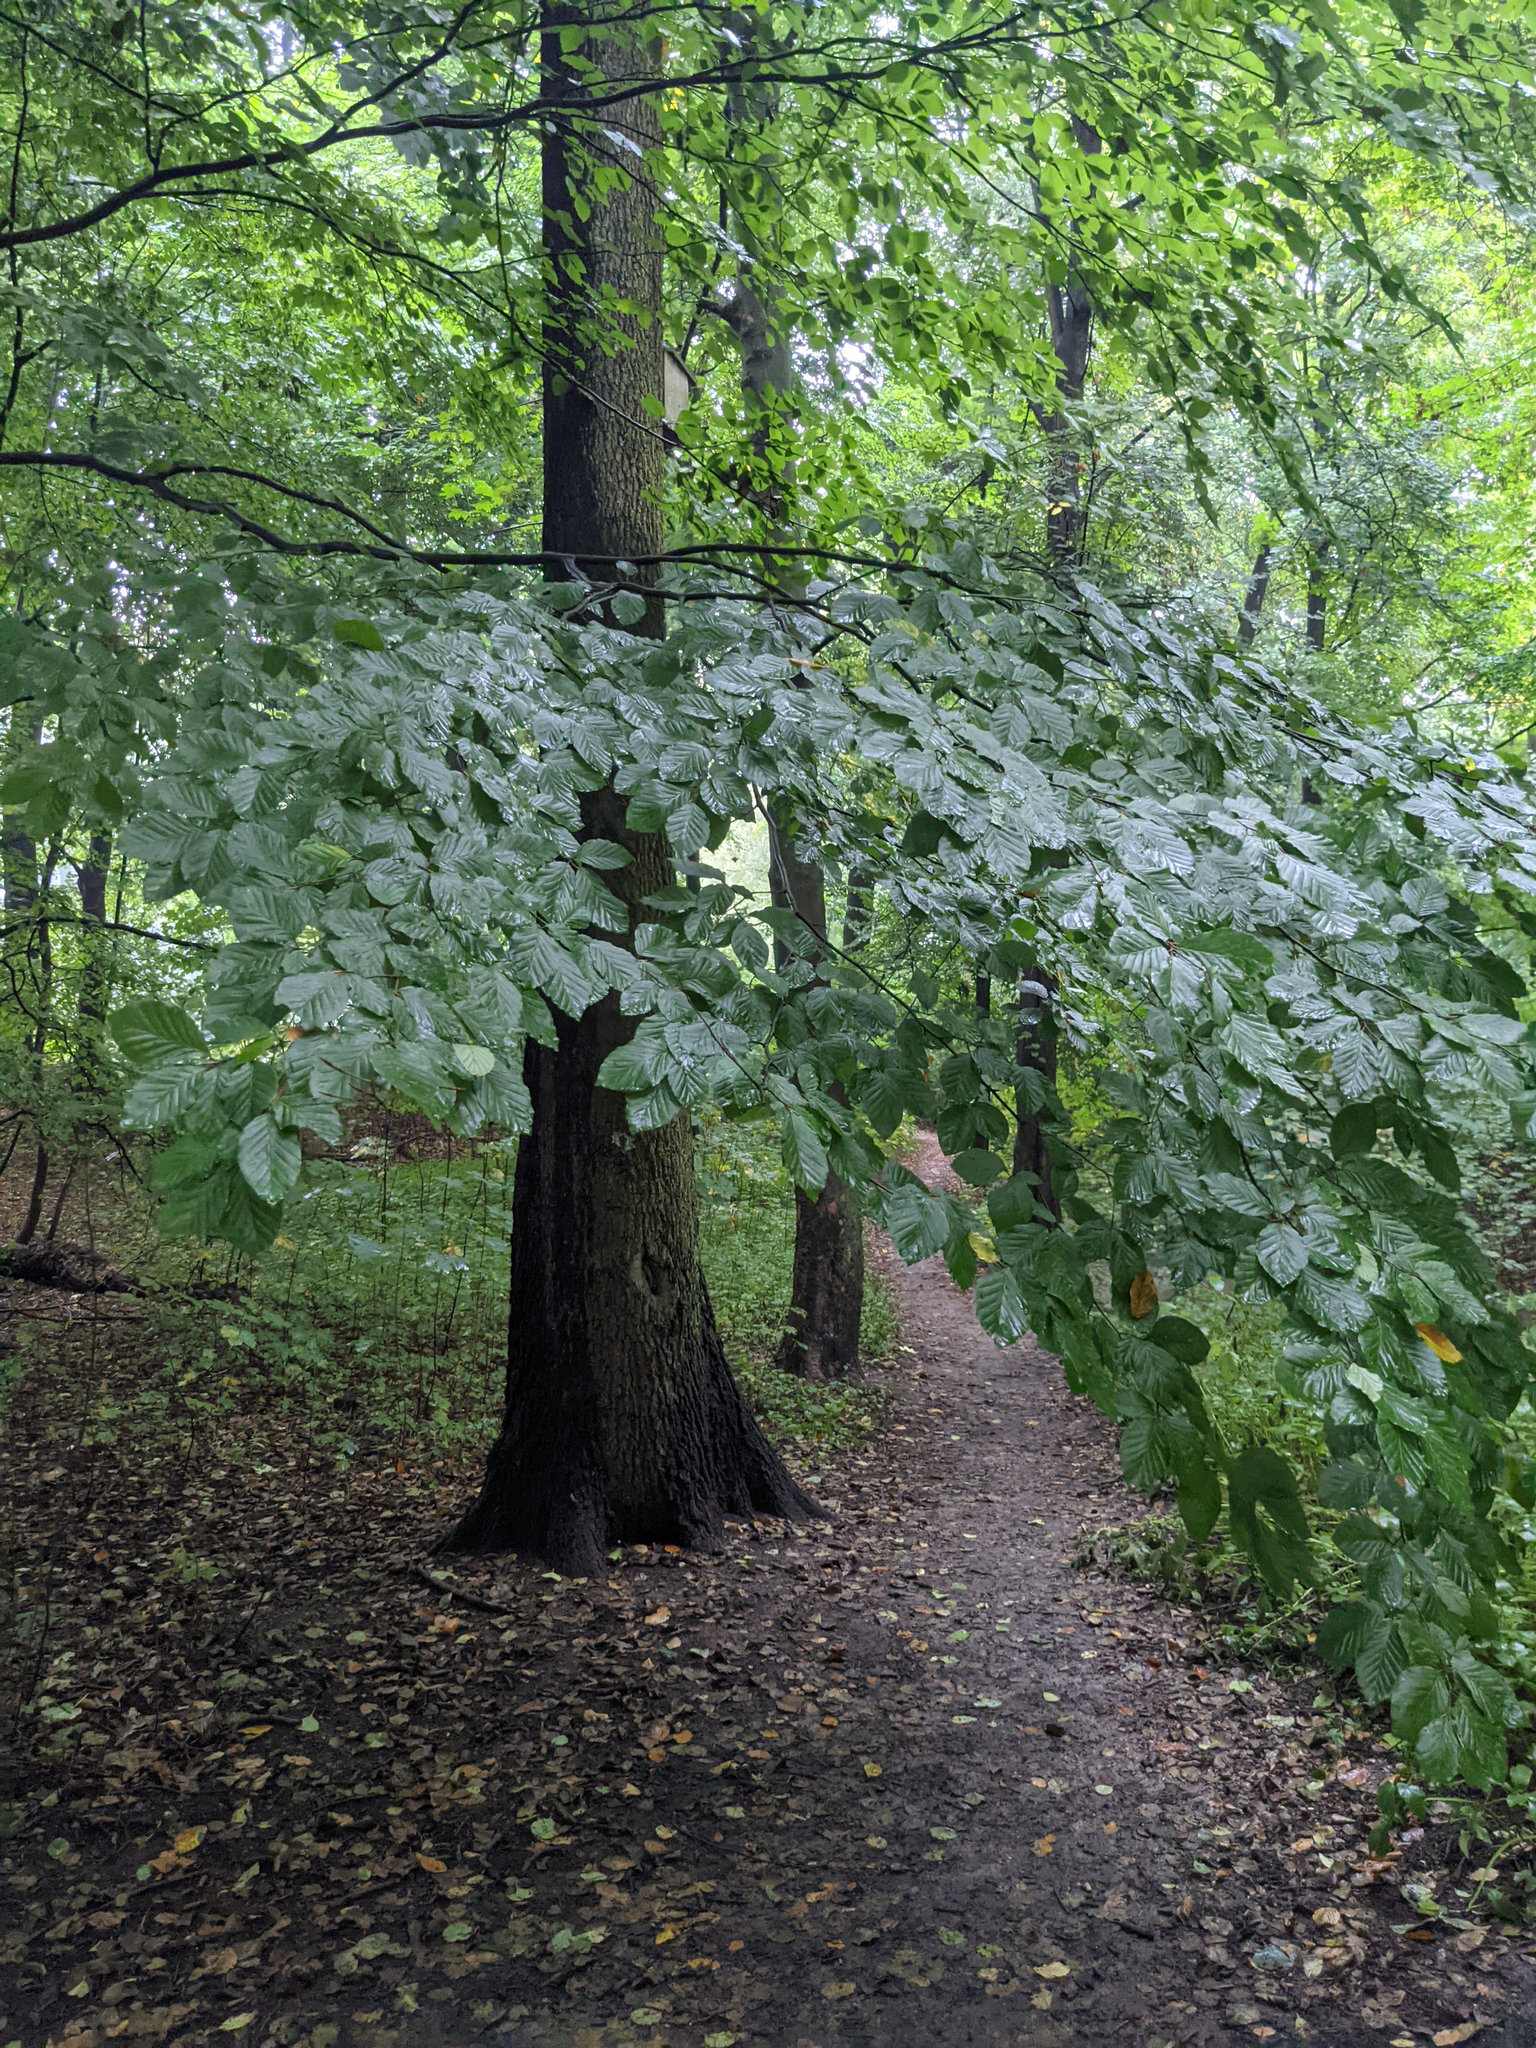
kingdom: Plantae
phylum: Tracheophyta
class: Magnoliopsida
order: Fagales
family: Fagaceae
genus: Fagus
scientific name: Fagus sylvatica
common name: Beech
